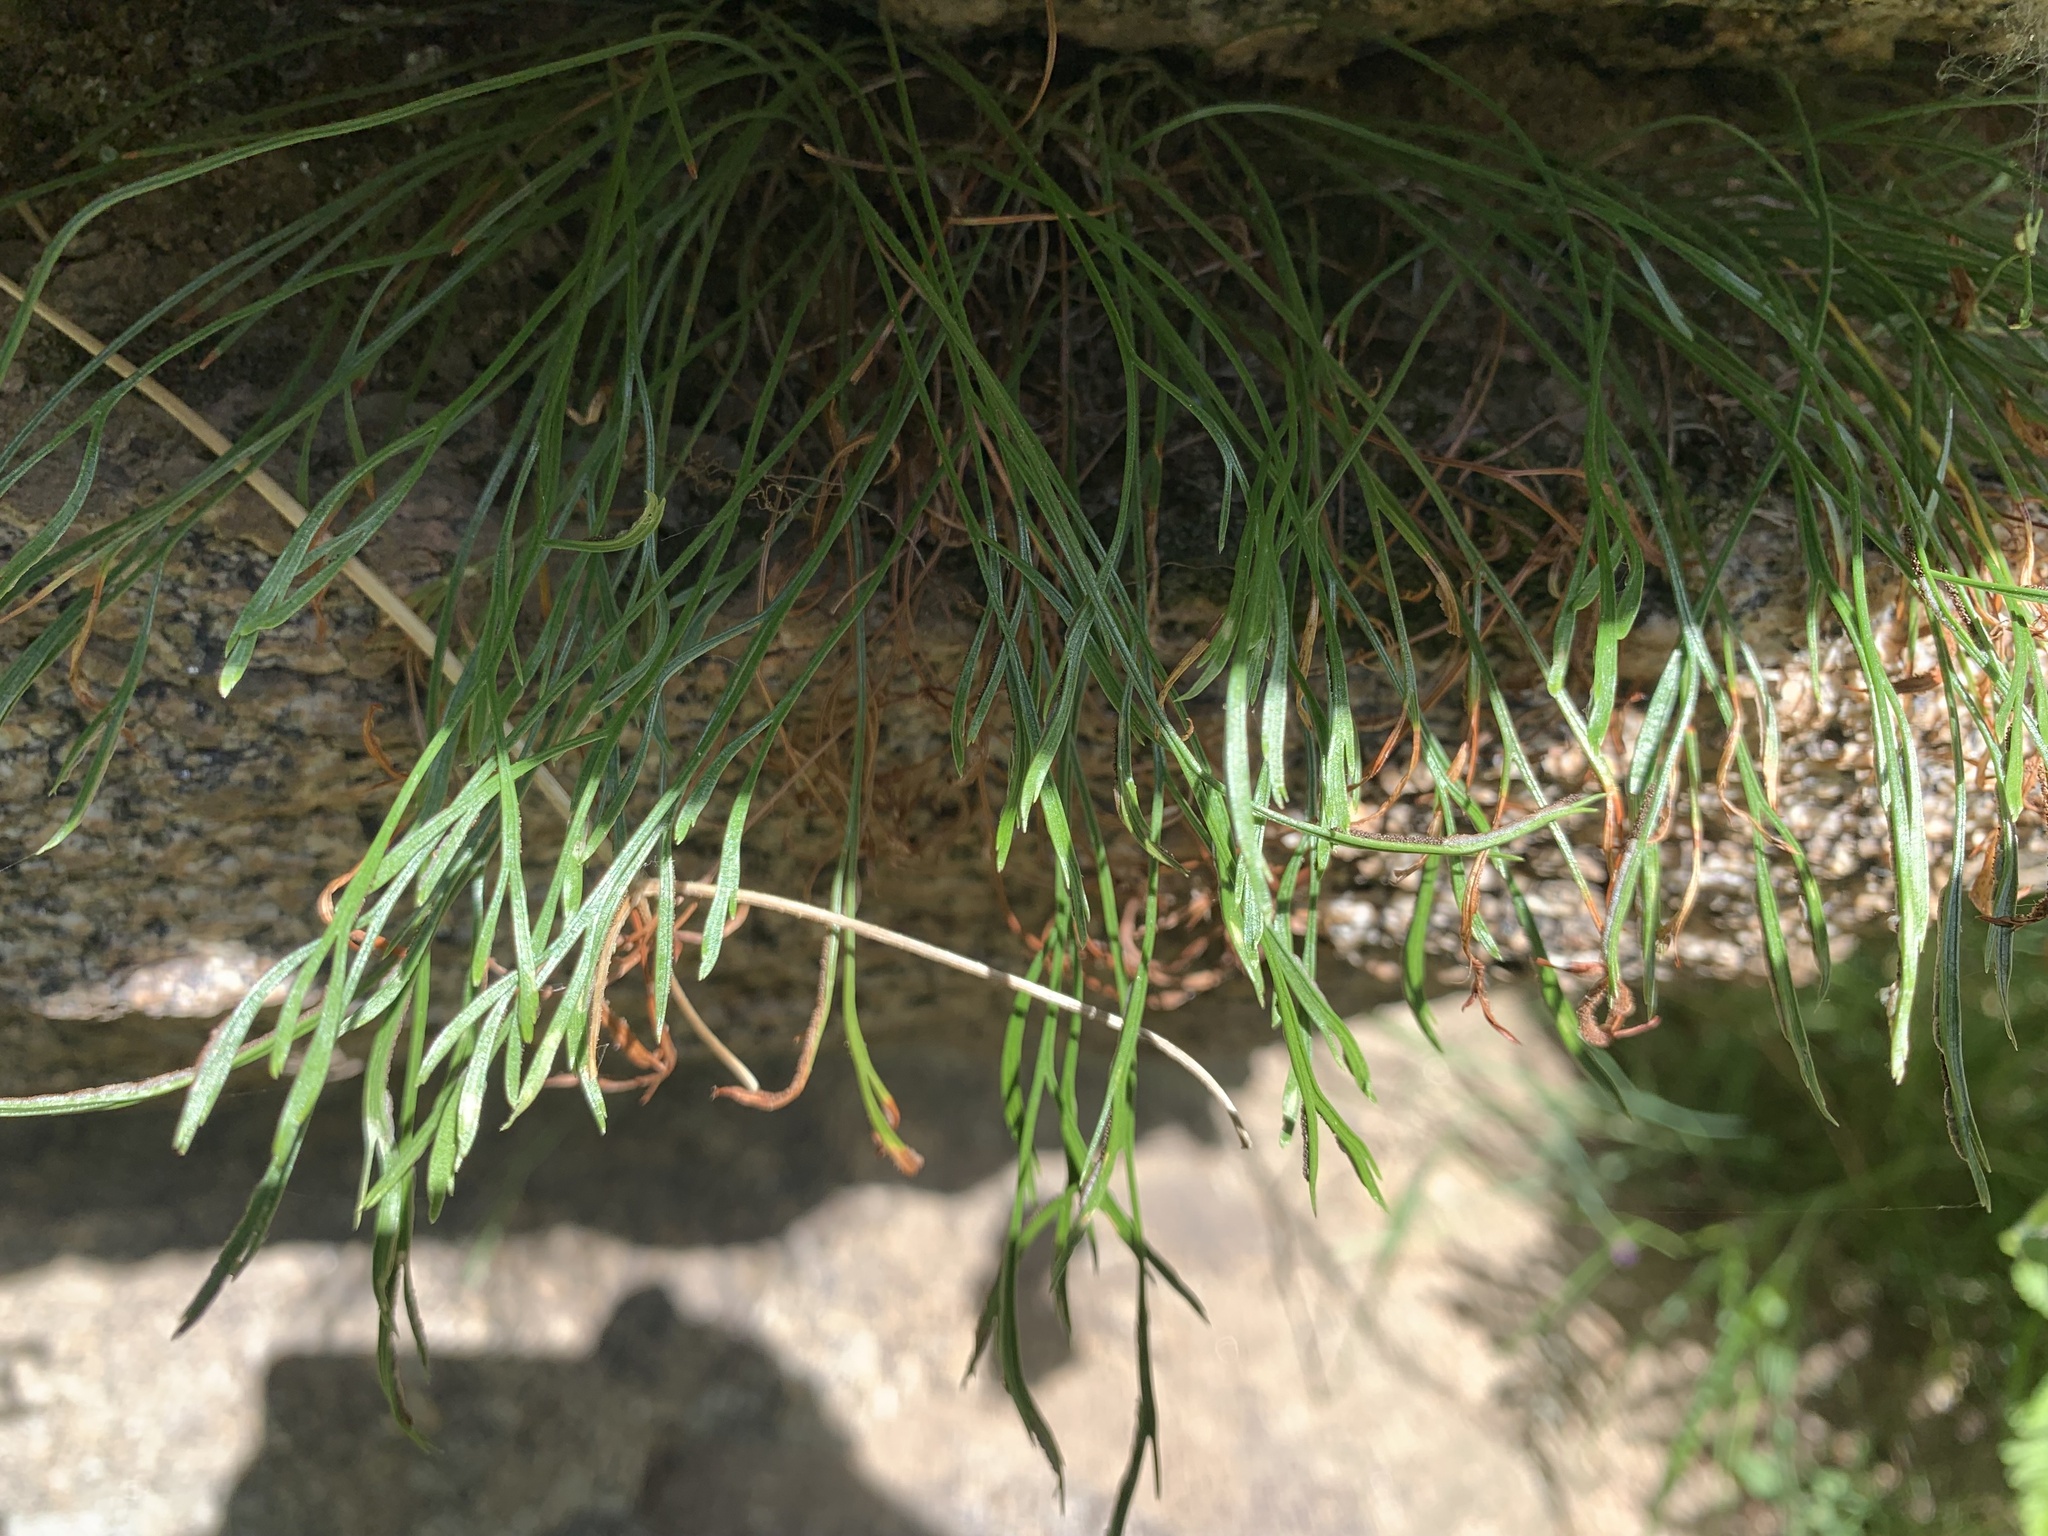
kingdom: Plantae
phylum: Tracheophyta
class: Polypodiopsida
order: Polypodiales
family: Aspleniaceae
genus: Asplenium
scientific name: Asplenium septentrionale
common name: Forked spleenwort
